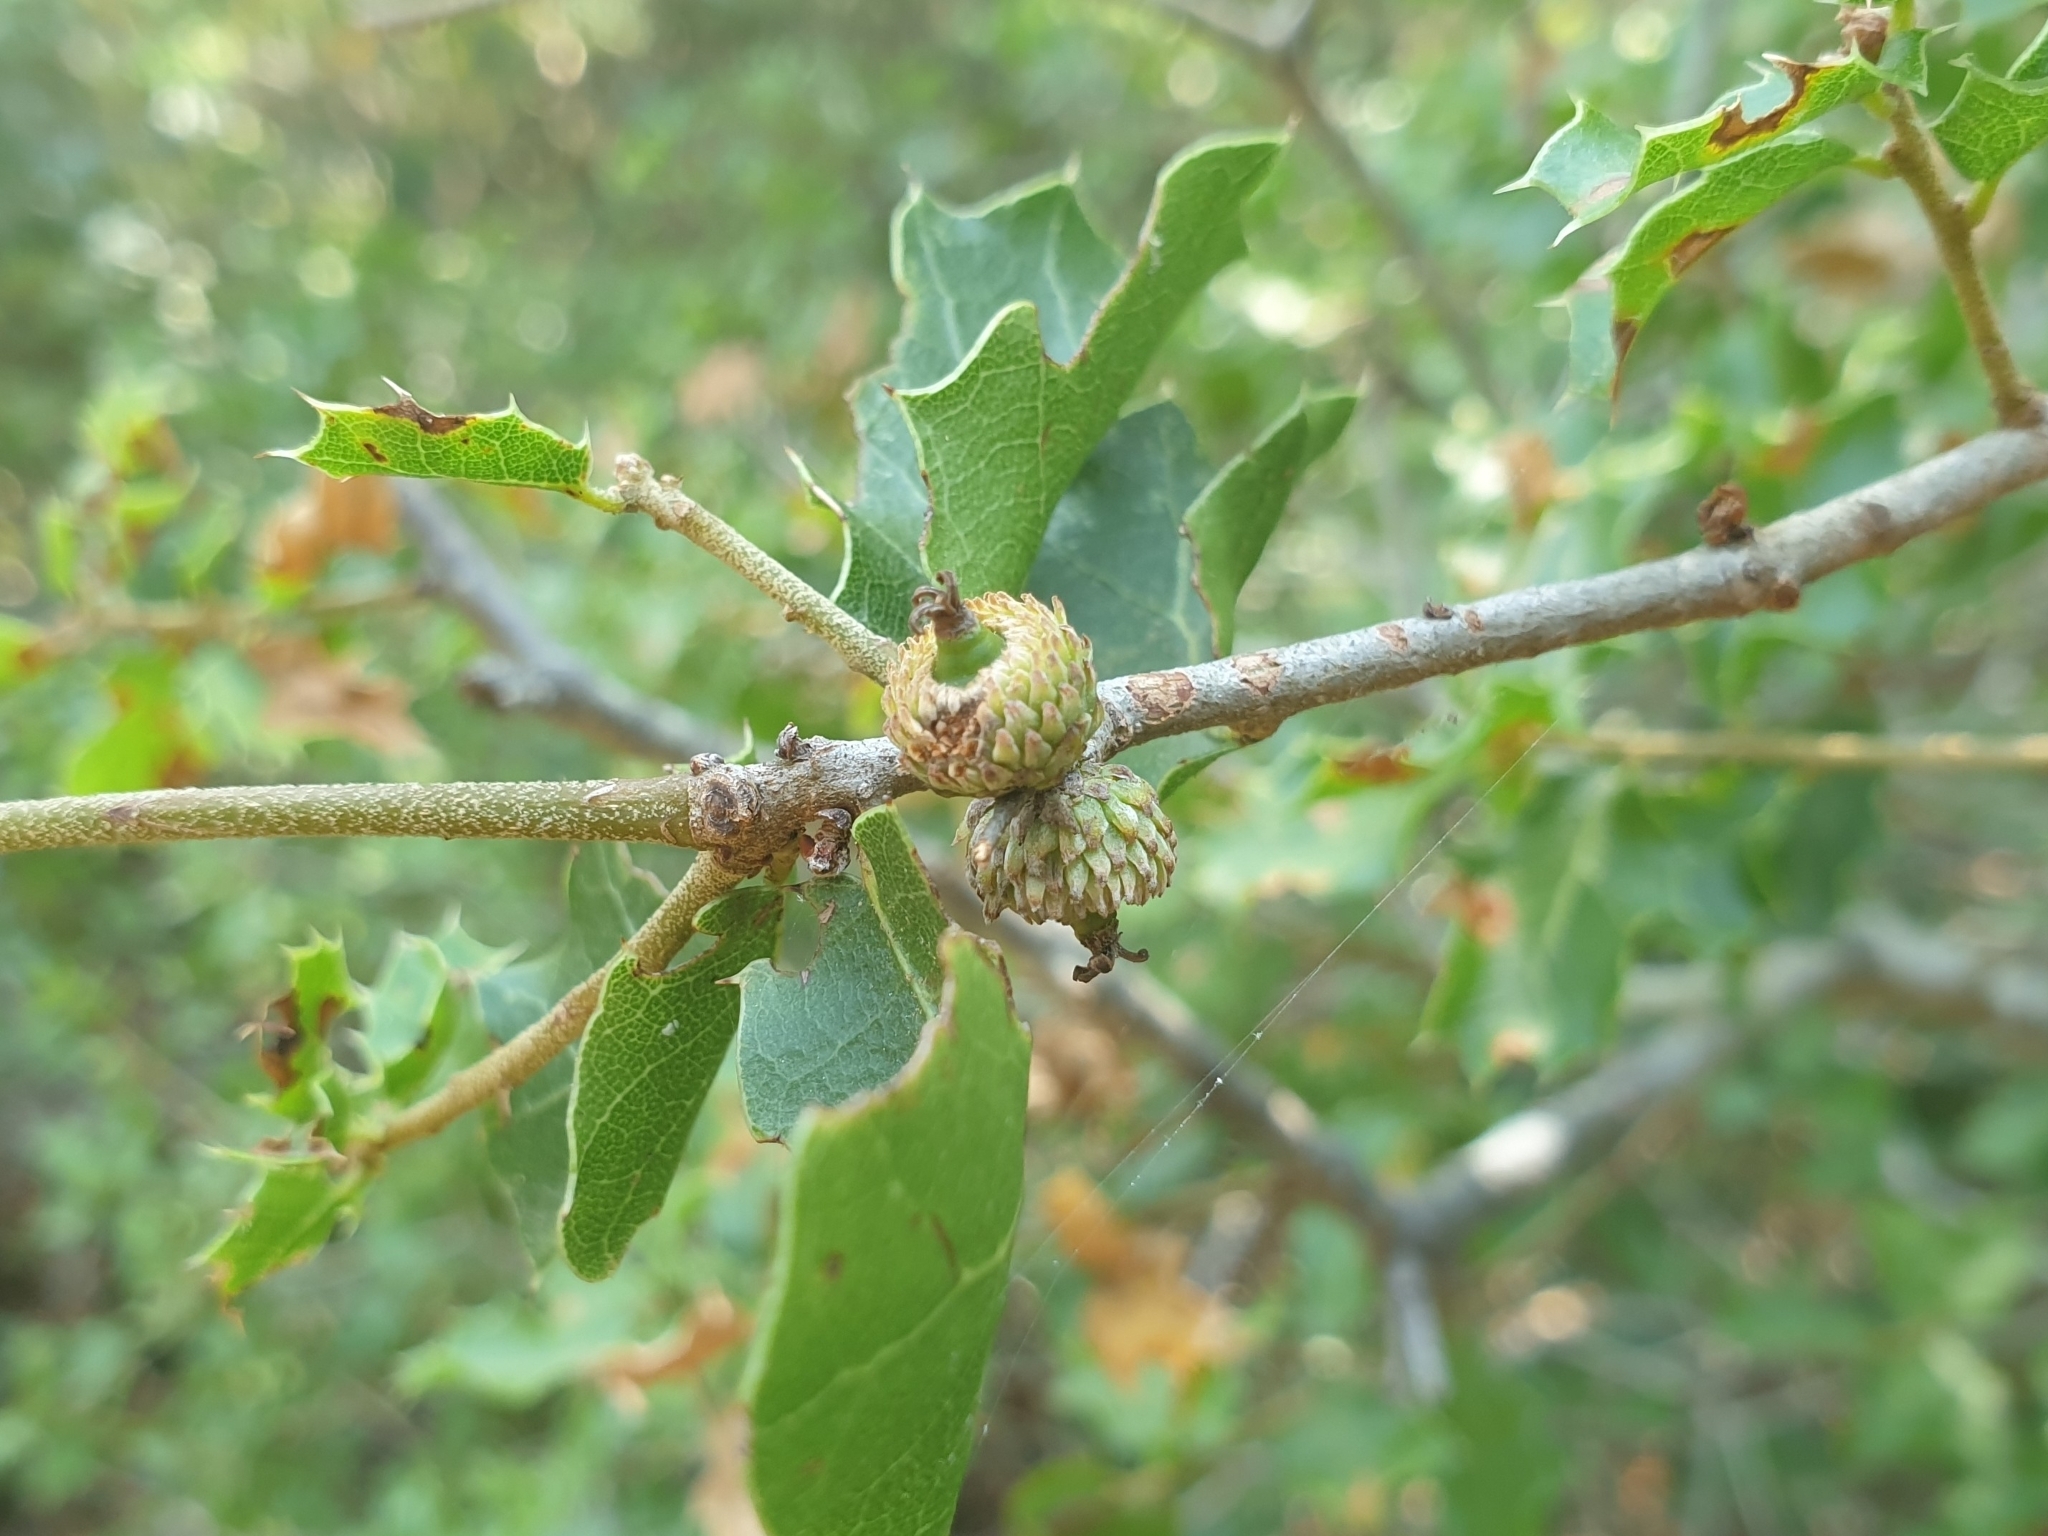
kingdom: Plantae
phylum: Tracheophyta
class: Magnoliopsida
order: Fagales
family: Fagaceae
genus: Quercus
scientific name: Quercus coccifera
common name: Kermes oak
